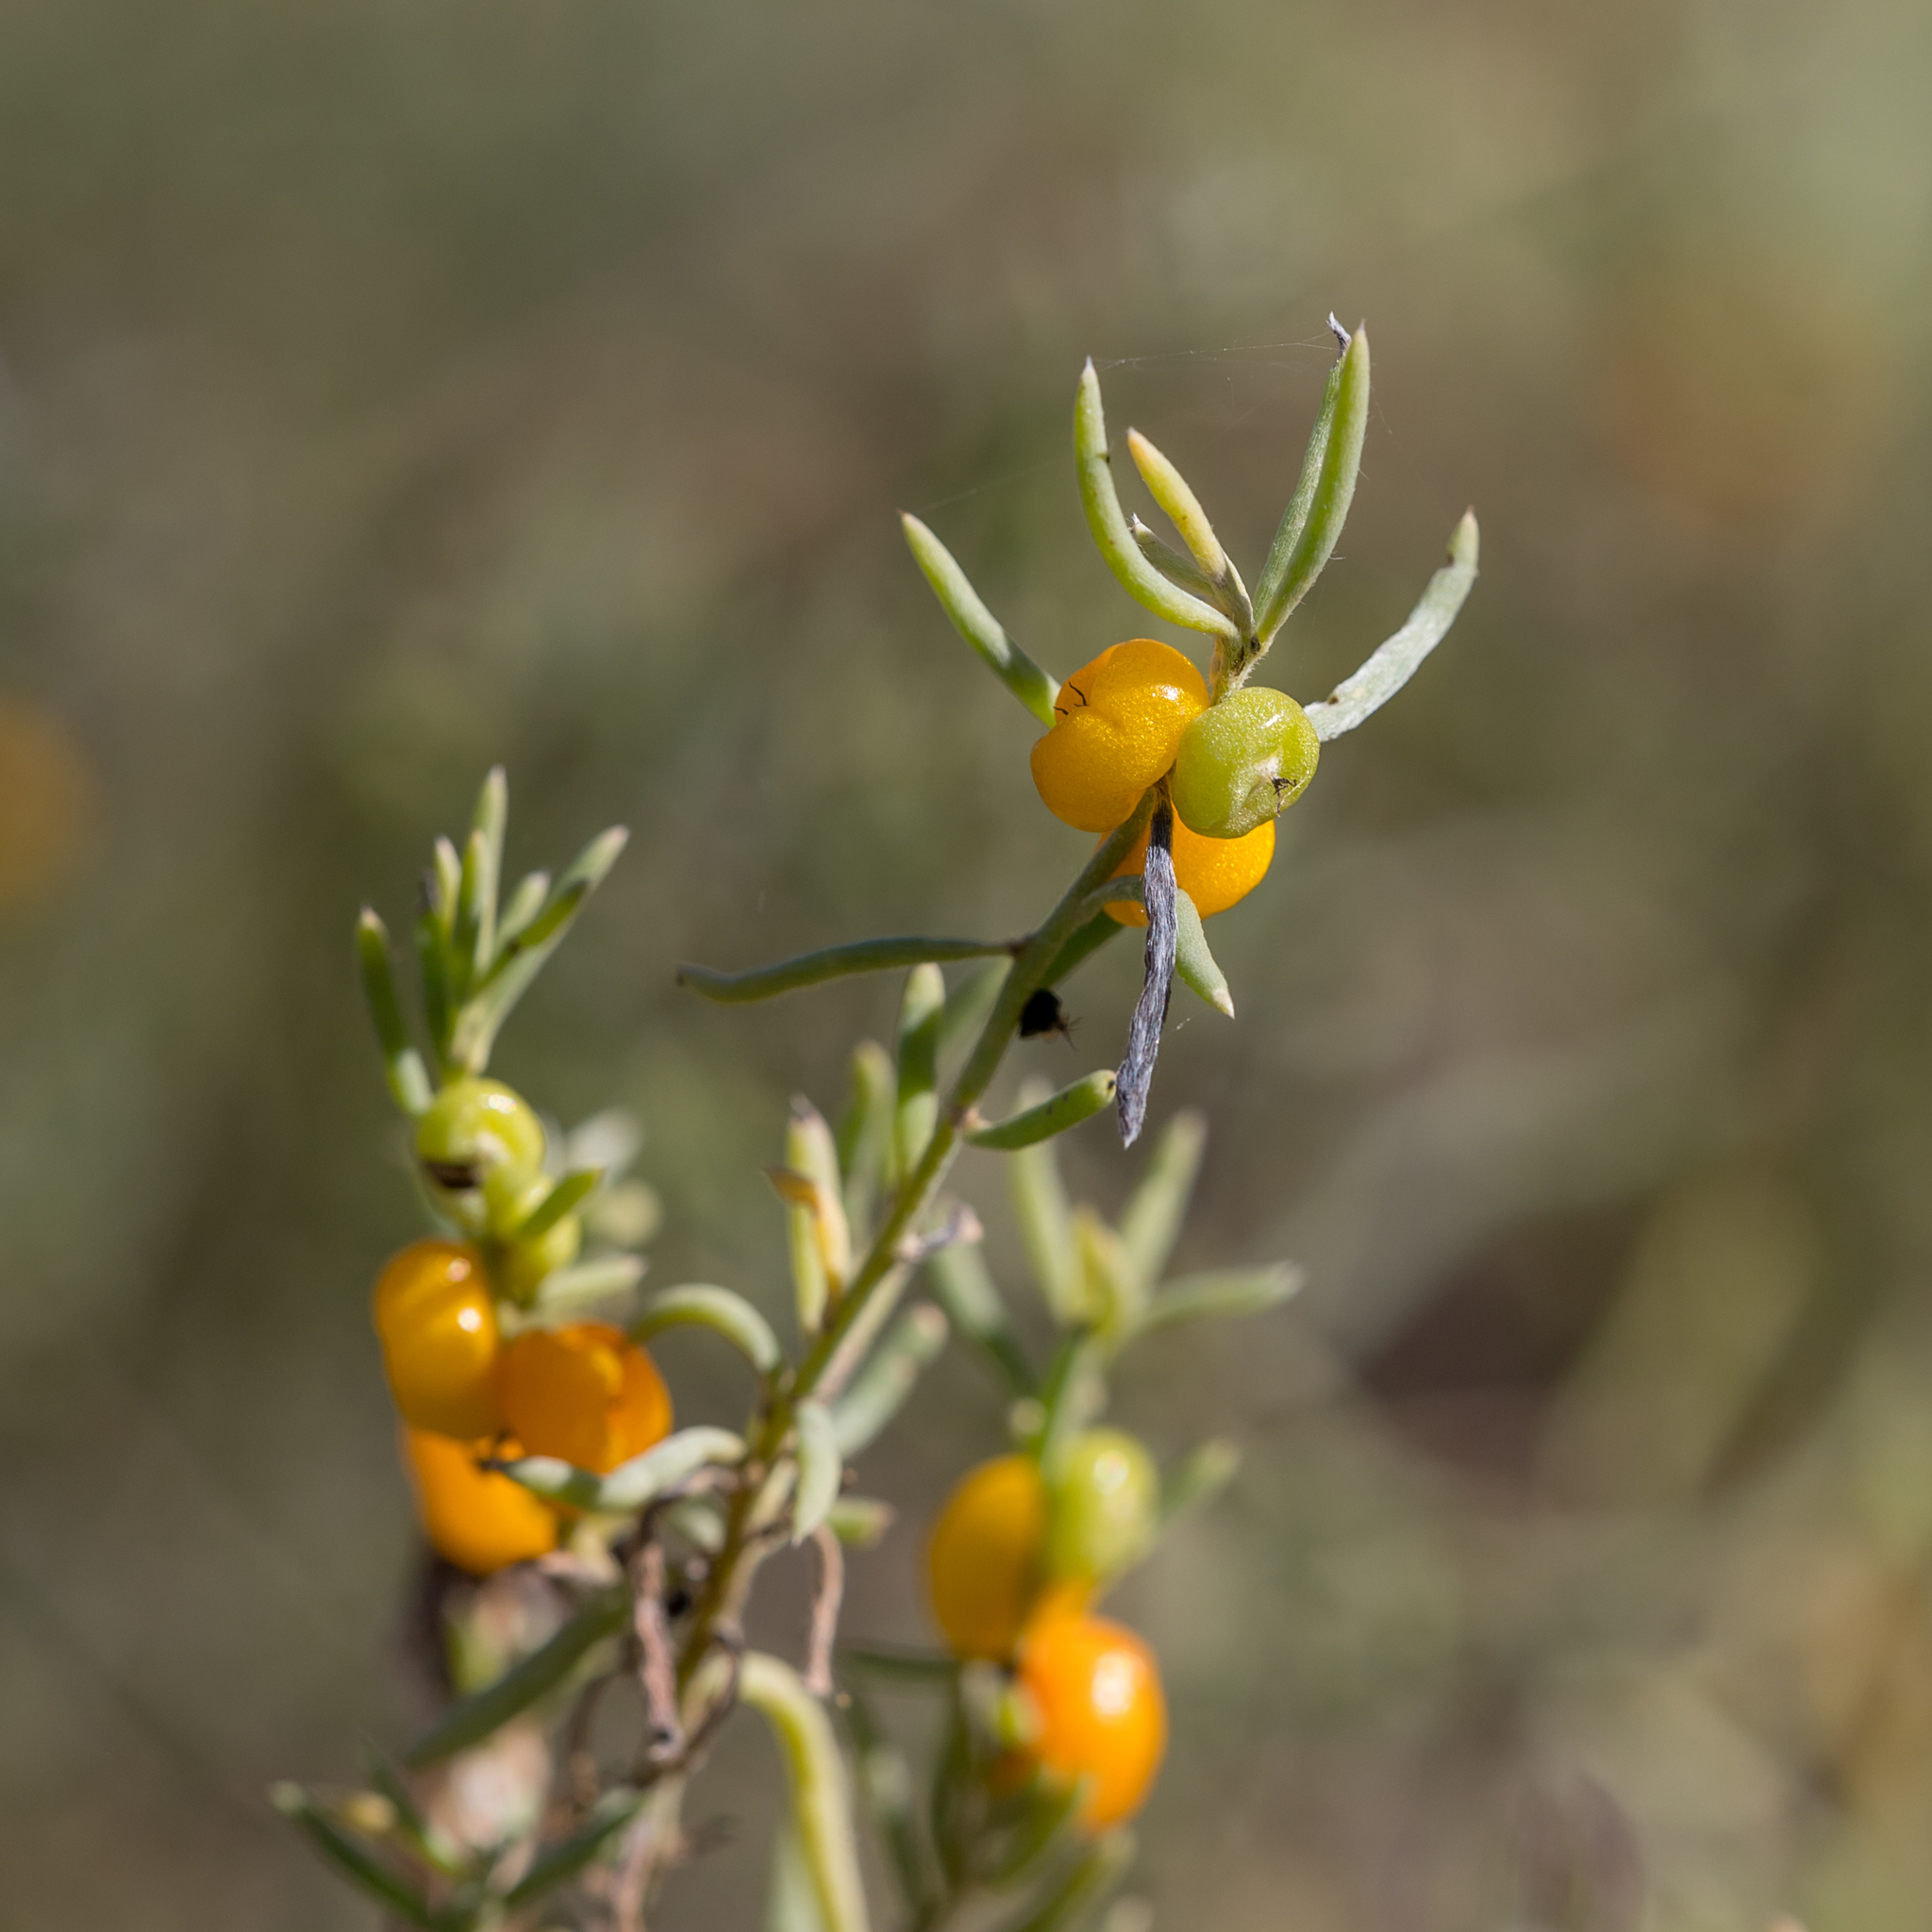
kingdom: Plantae
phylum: Tracheophyta
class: Magnoliopsida
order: Caryophyllales
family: Amaranthaceae
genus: Enchylaena
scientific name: Enchylaena tomentosa
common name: Ruby saltbush
